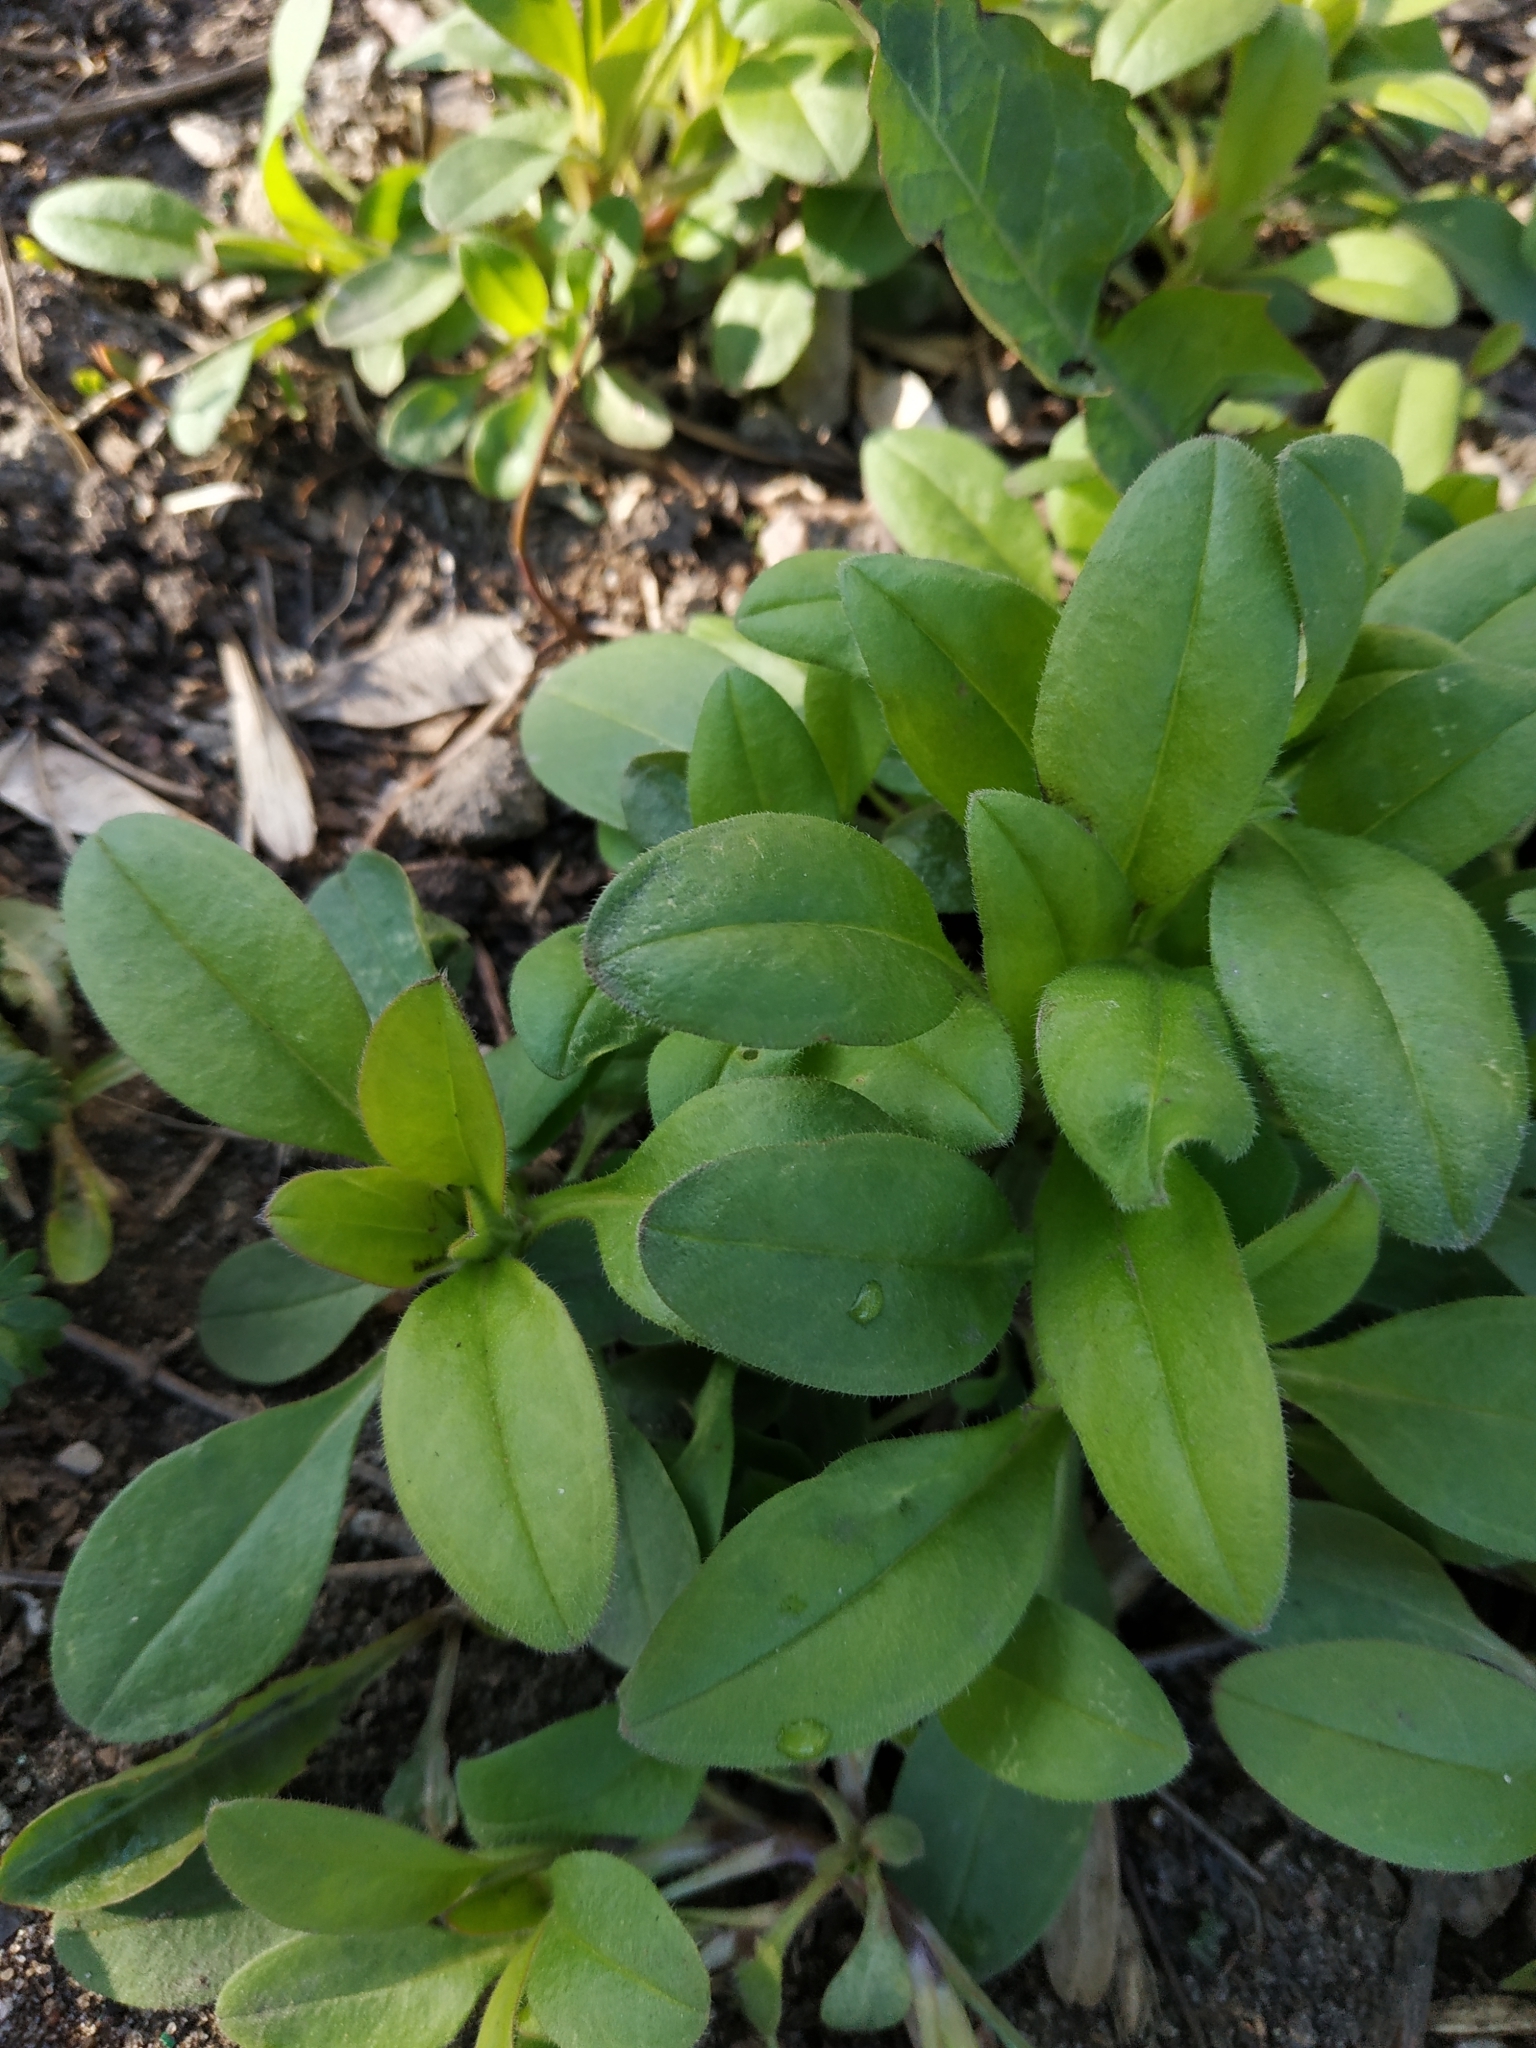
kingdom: Plantae
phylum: Tracheophyta
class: Magnoliopsida
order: Boraginales
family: Boraginaceae
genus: Myosotis
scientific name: Myosotis sparsiflora
